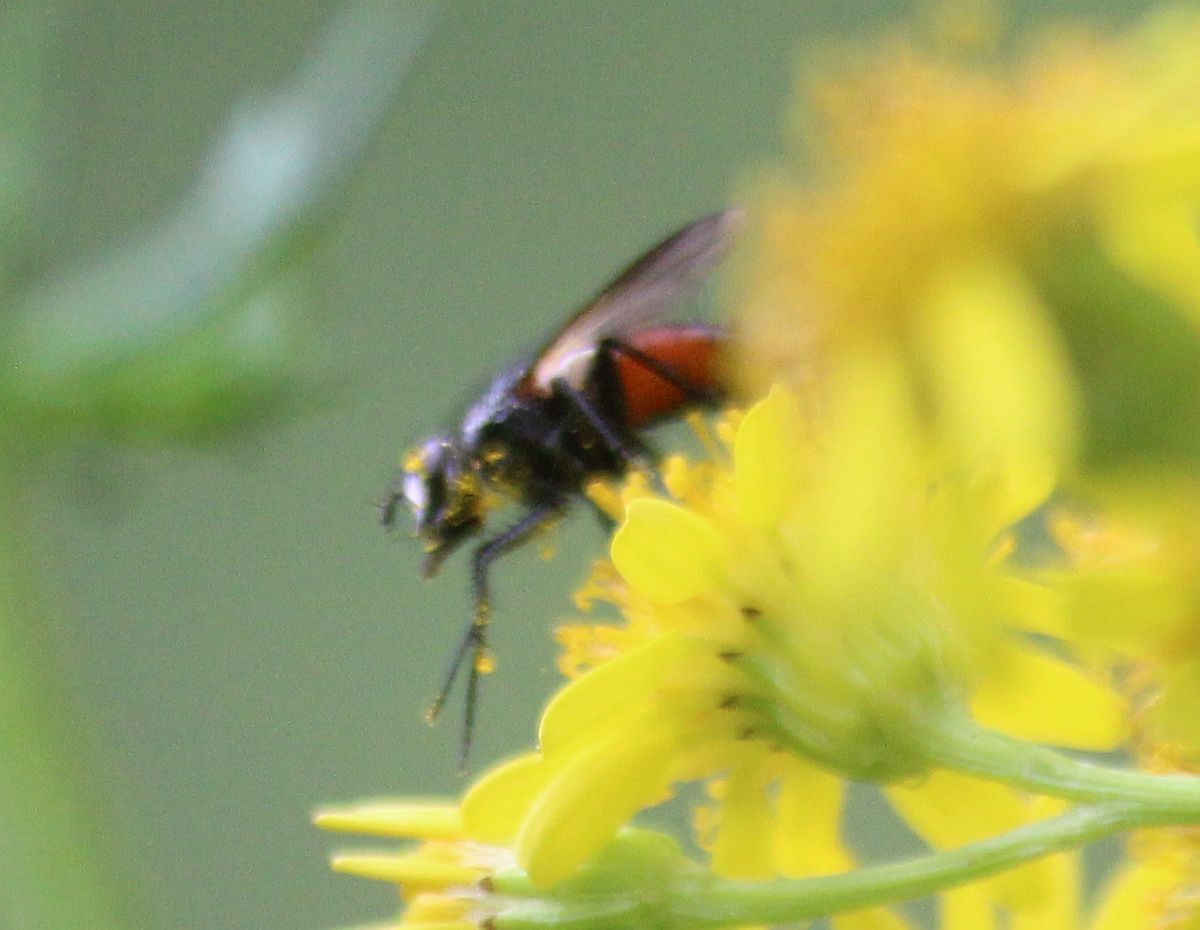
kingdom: Animalia
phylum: Arthropoda
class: Insecta
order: Diptera
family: Tachinidae
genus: Eriothrix
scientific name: Eriothrix rufomaculatus
